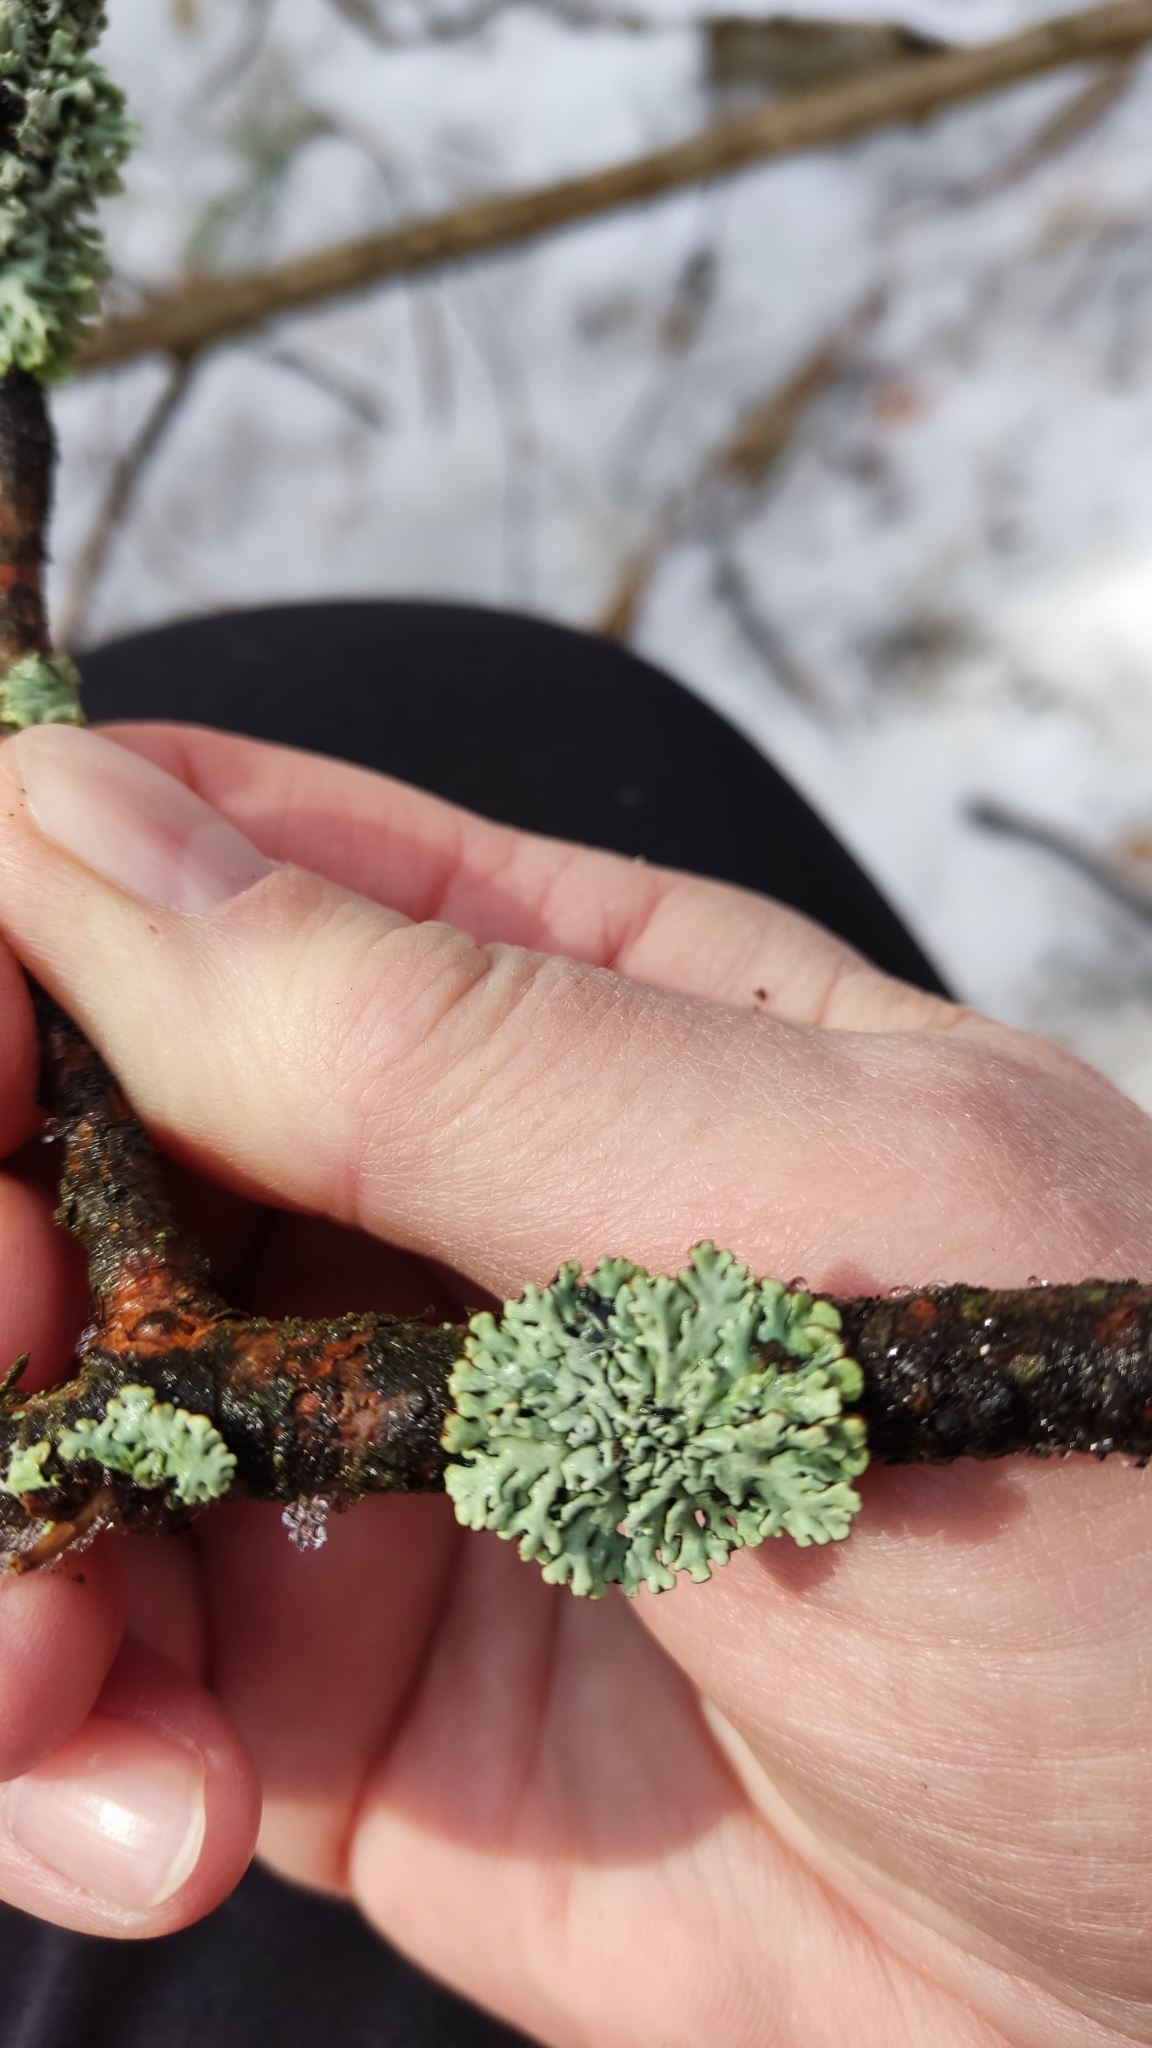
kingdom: Fungi
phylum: Ascomycota
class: Lecanoromycetes
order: Lecanorales
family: Parmeliaceae
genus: Hypogymnia
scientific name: Hypogymnia physodes
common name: Dark crottle
